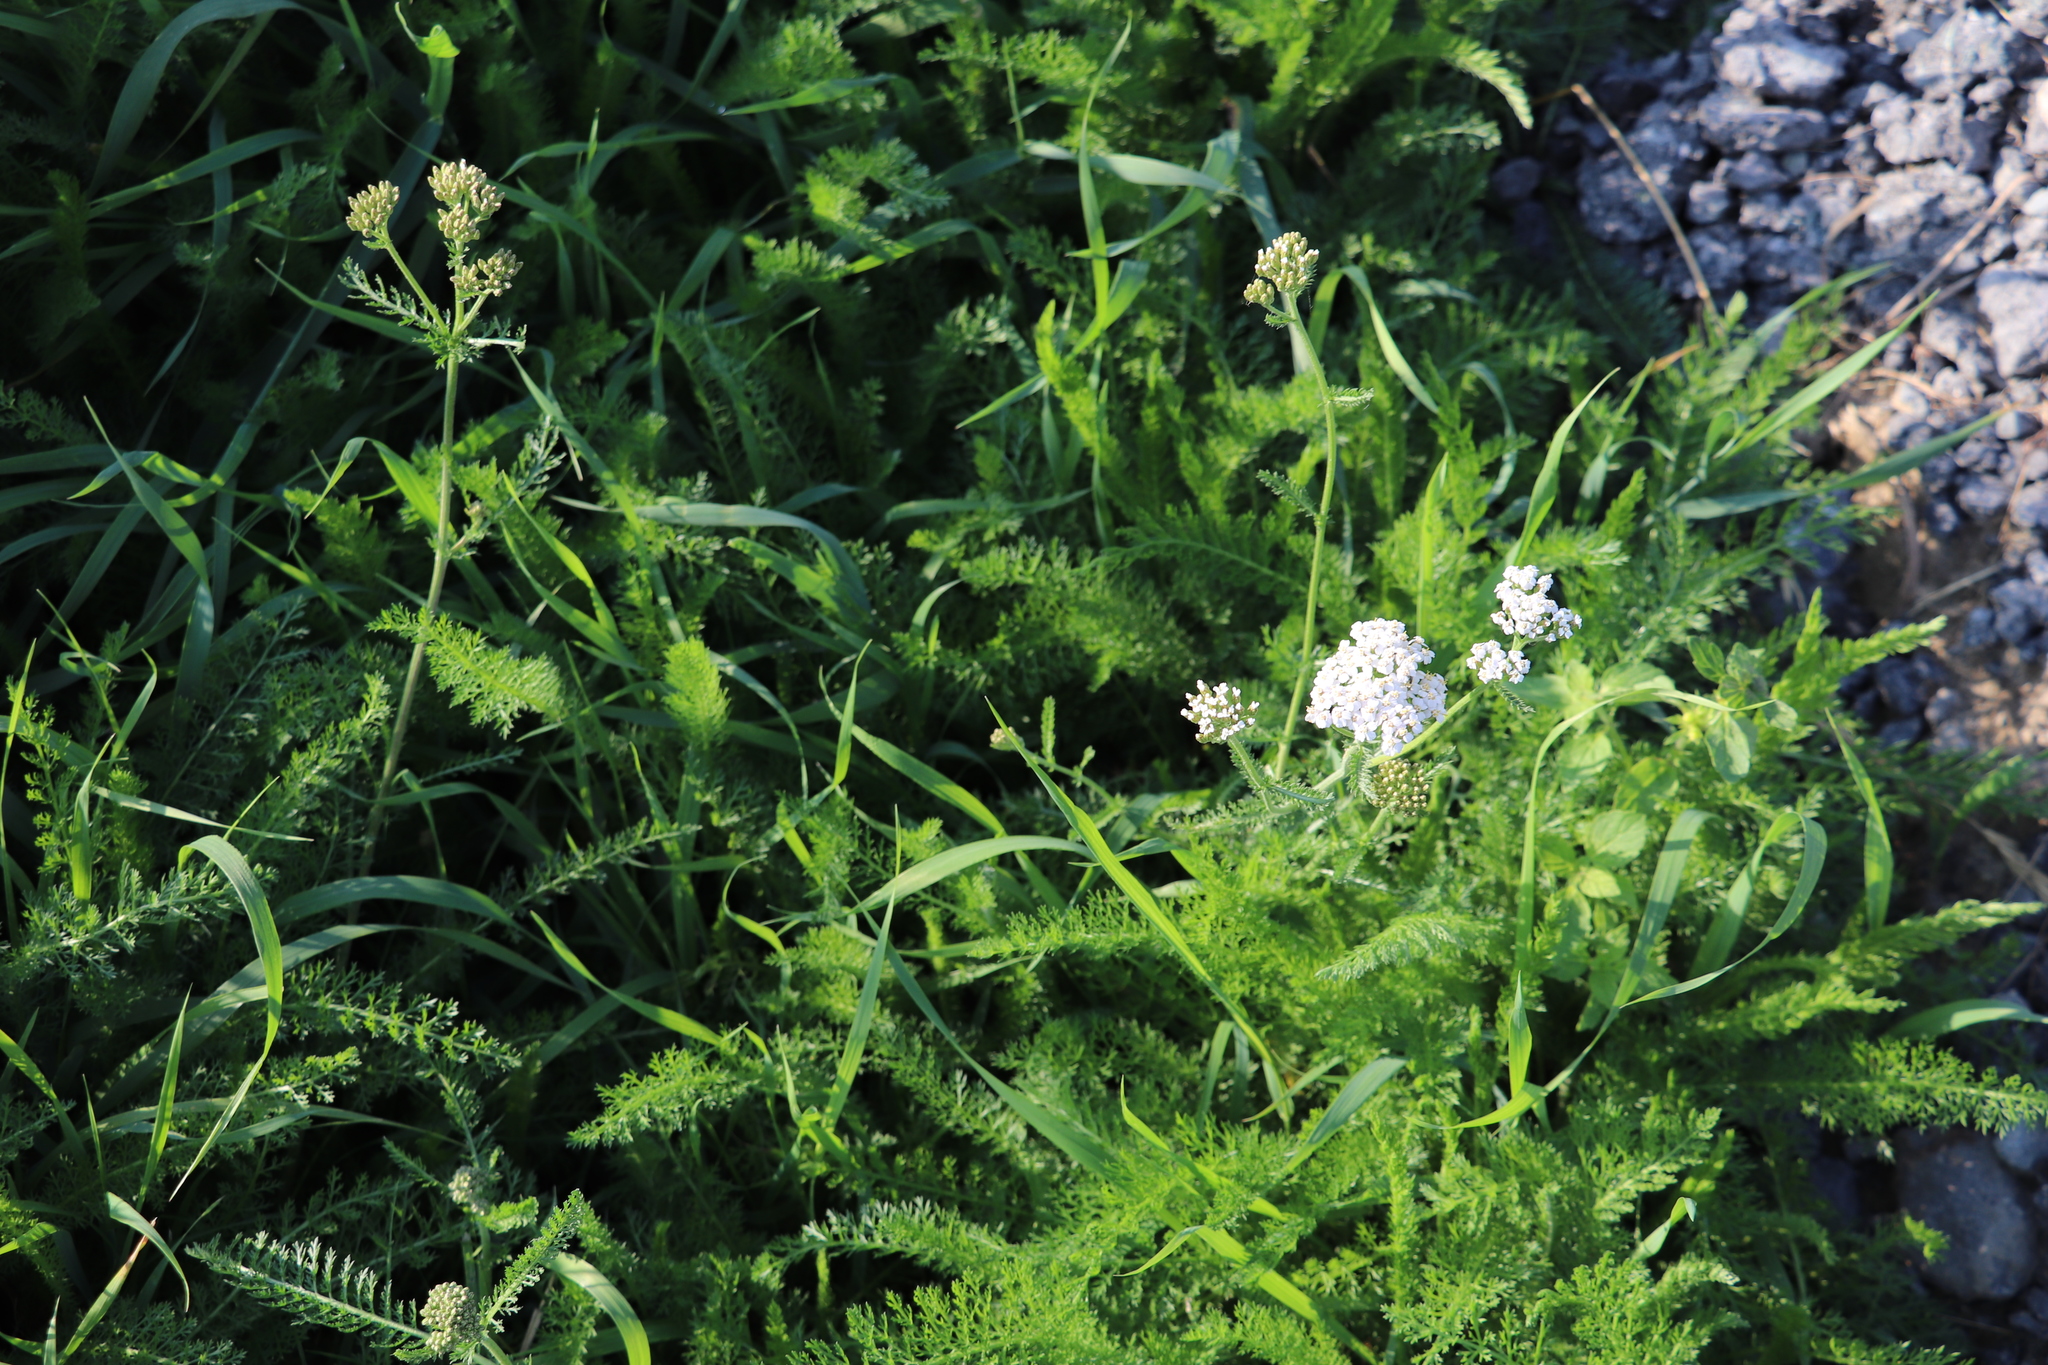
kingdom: Plantae
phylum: Tracheophyta
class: Magnoliopsida
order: Asterales
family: Asteraceae
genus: Achillea
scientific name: Achillea millefolium
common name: Yarrow
